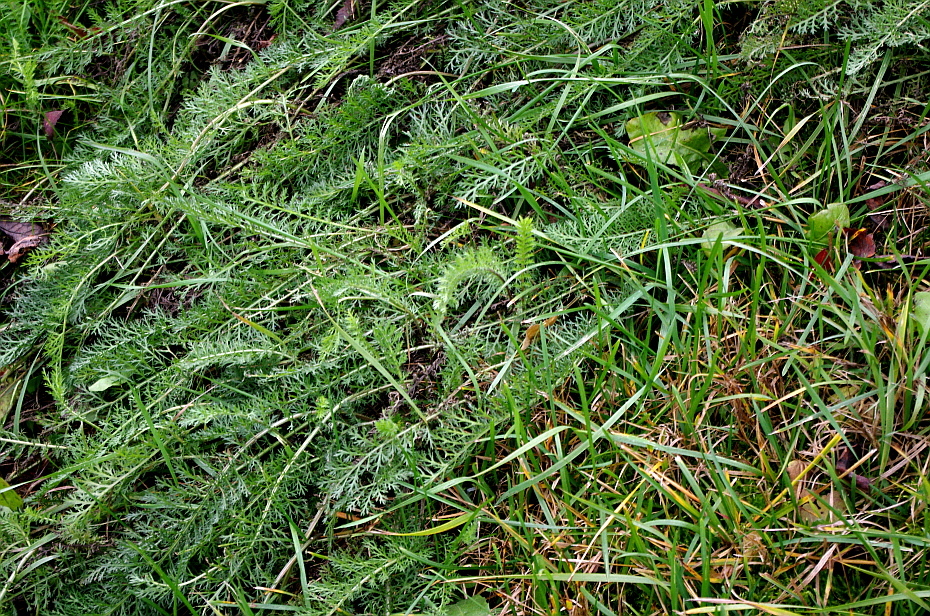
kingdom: Plantae
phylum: Tracheophyta
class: Magnoliopsida
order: Asterales
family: Asteraceae
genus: Achillea
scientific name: Achillea millefolium
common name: Yarrow
